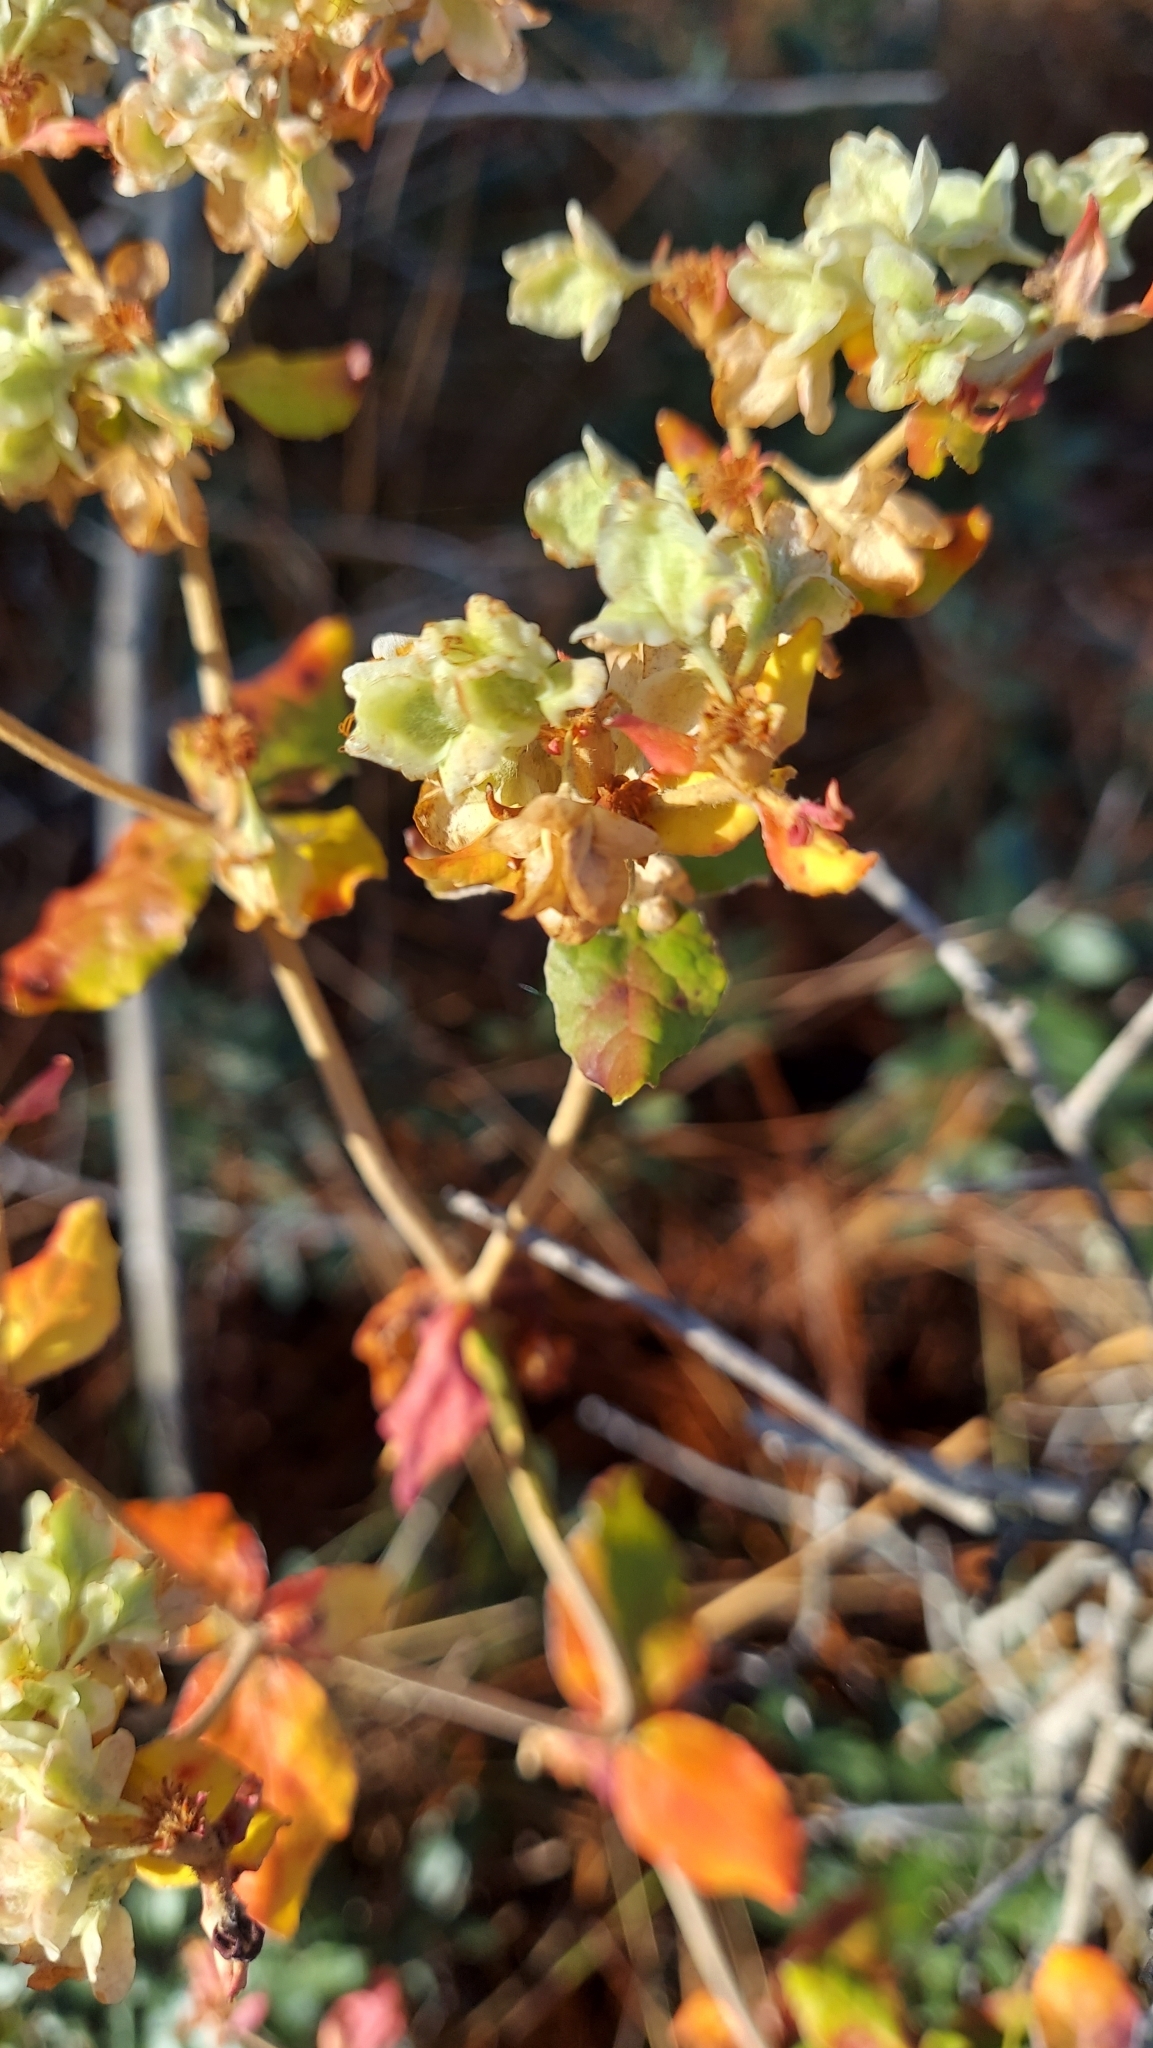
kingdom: Plantae
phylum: Tracheophyta
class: Magnoliopsida
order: Caryophyllales
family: Polygonaceae
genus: Eriogonum
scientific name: Eriogonum tomentosum
